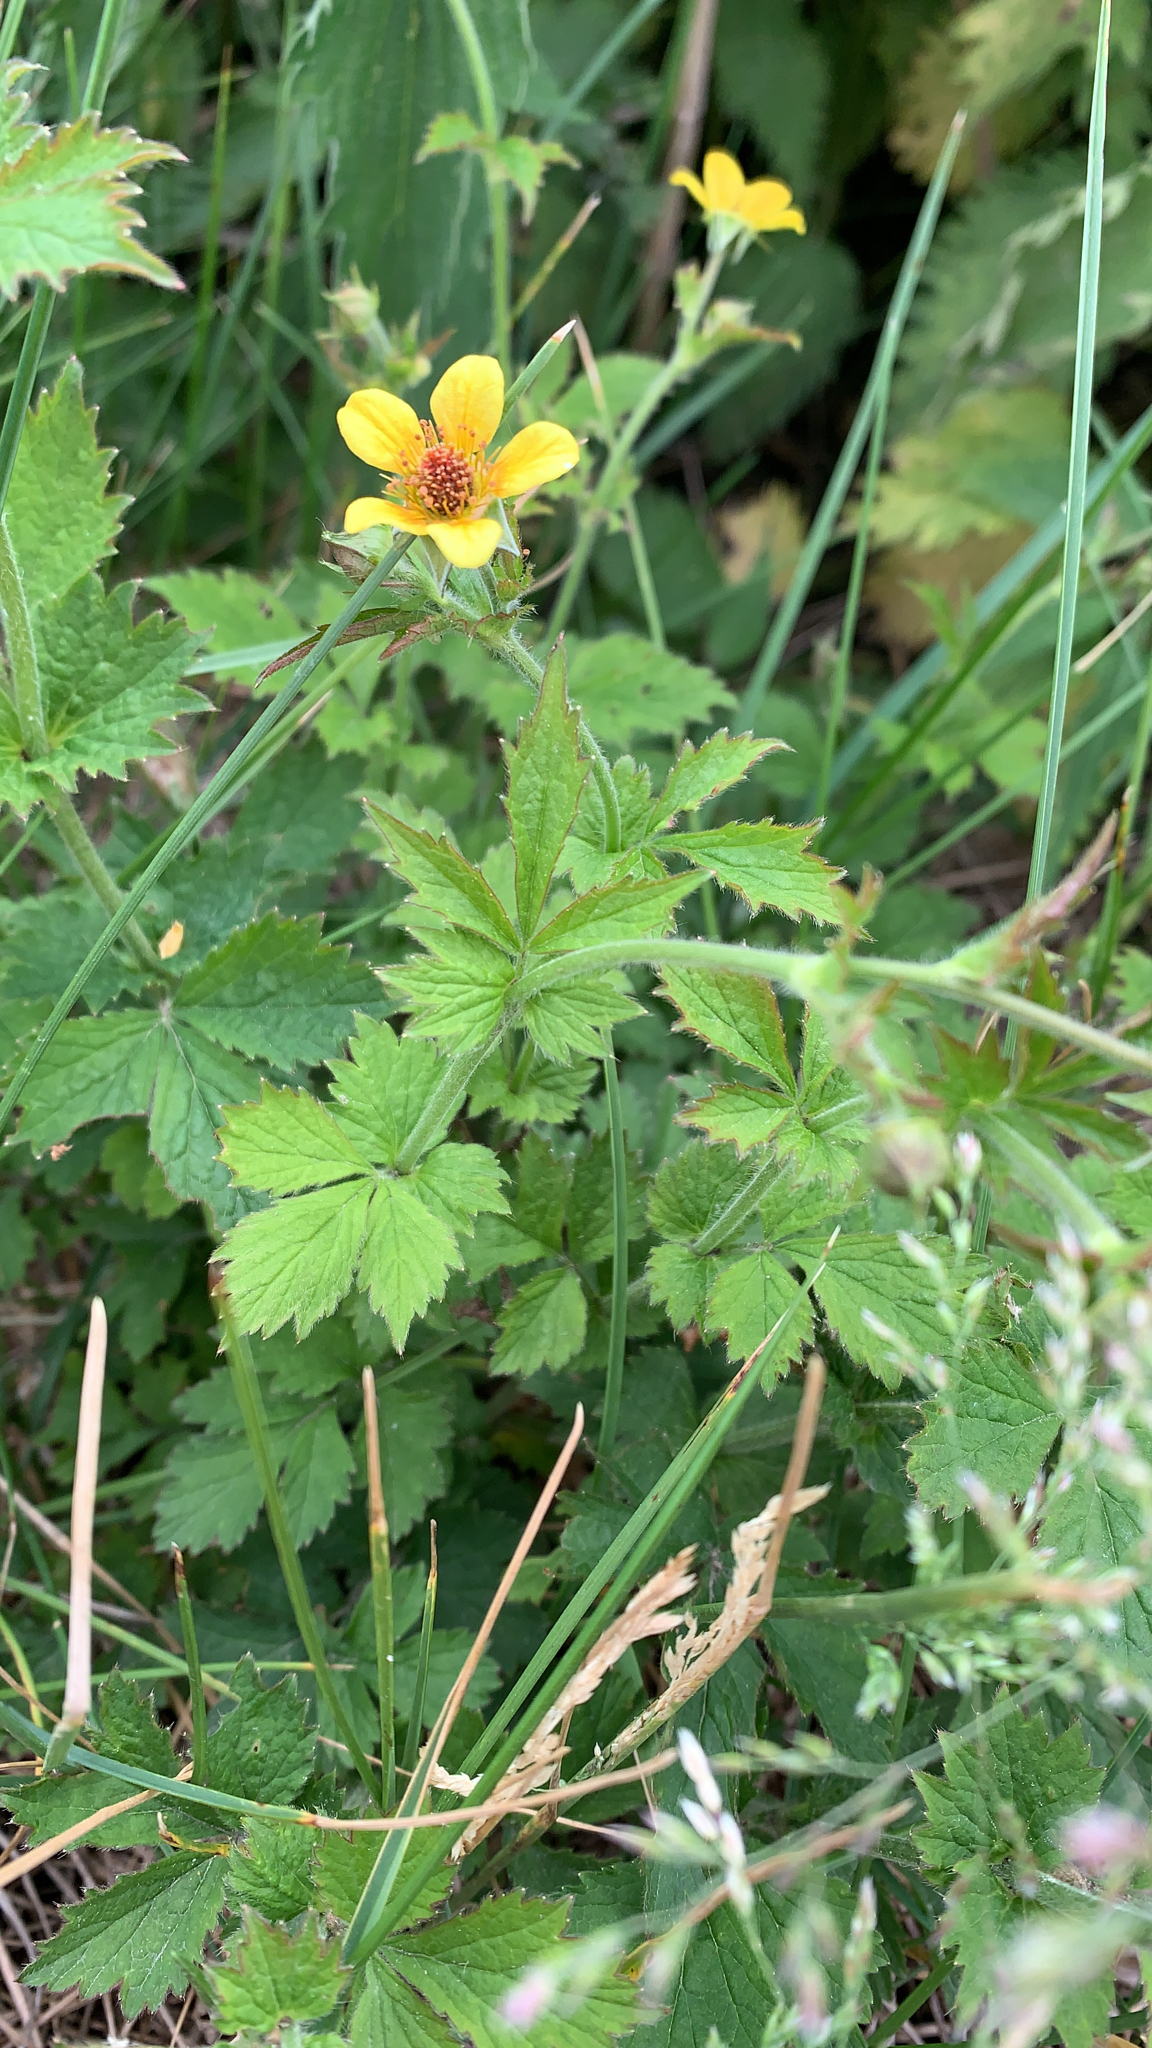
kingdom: Plantae
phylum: Tracheophyta
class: Magnoliopsida
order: Rosales
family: Rosaceae
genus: Geum
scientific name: Geum urbanum
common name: Wood avens
